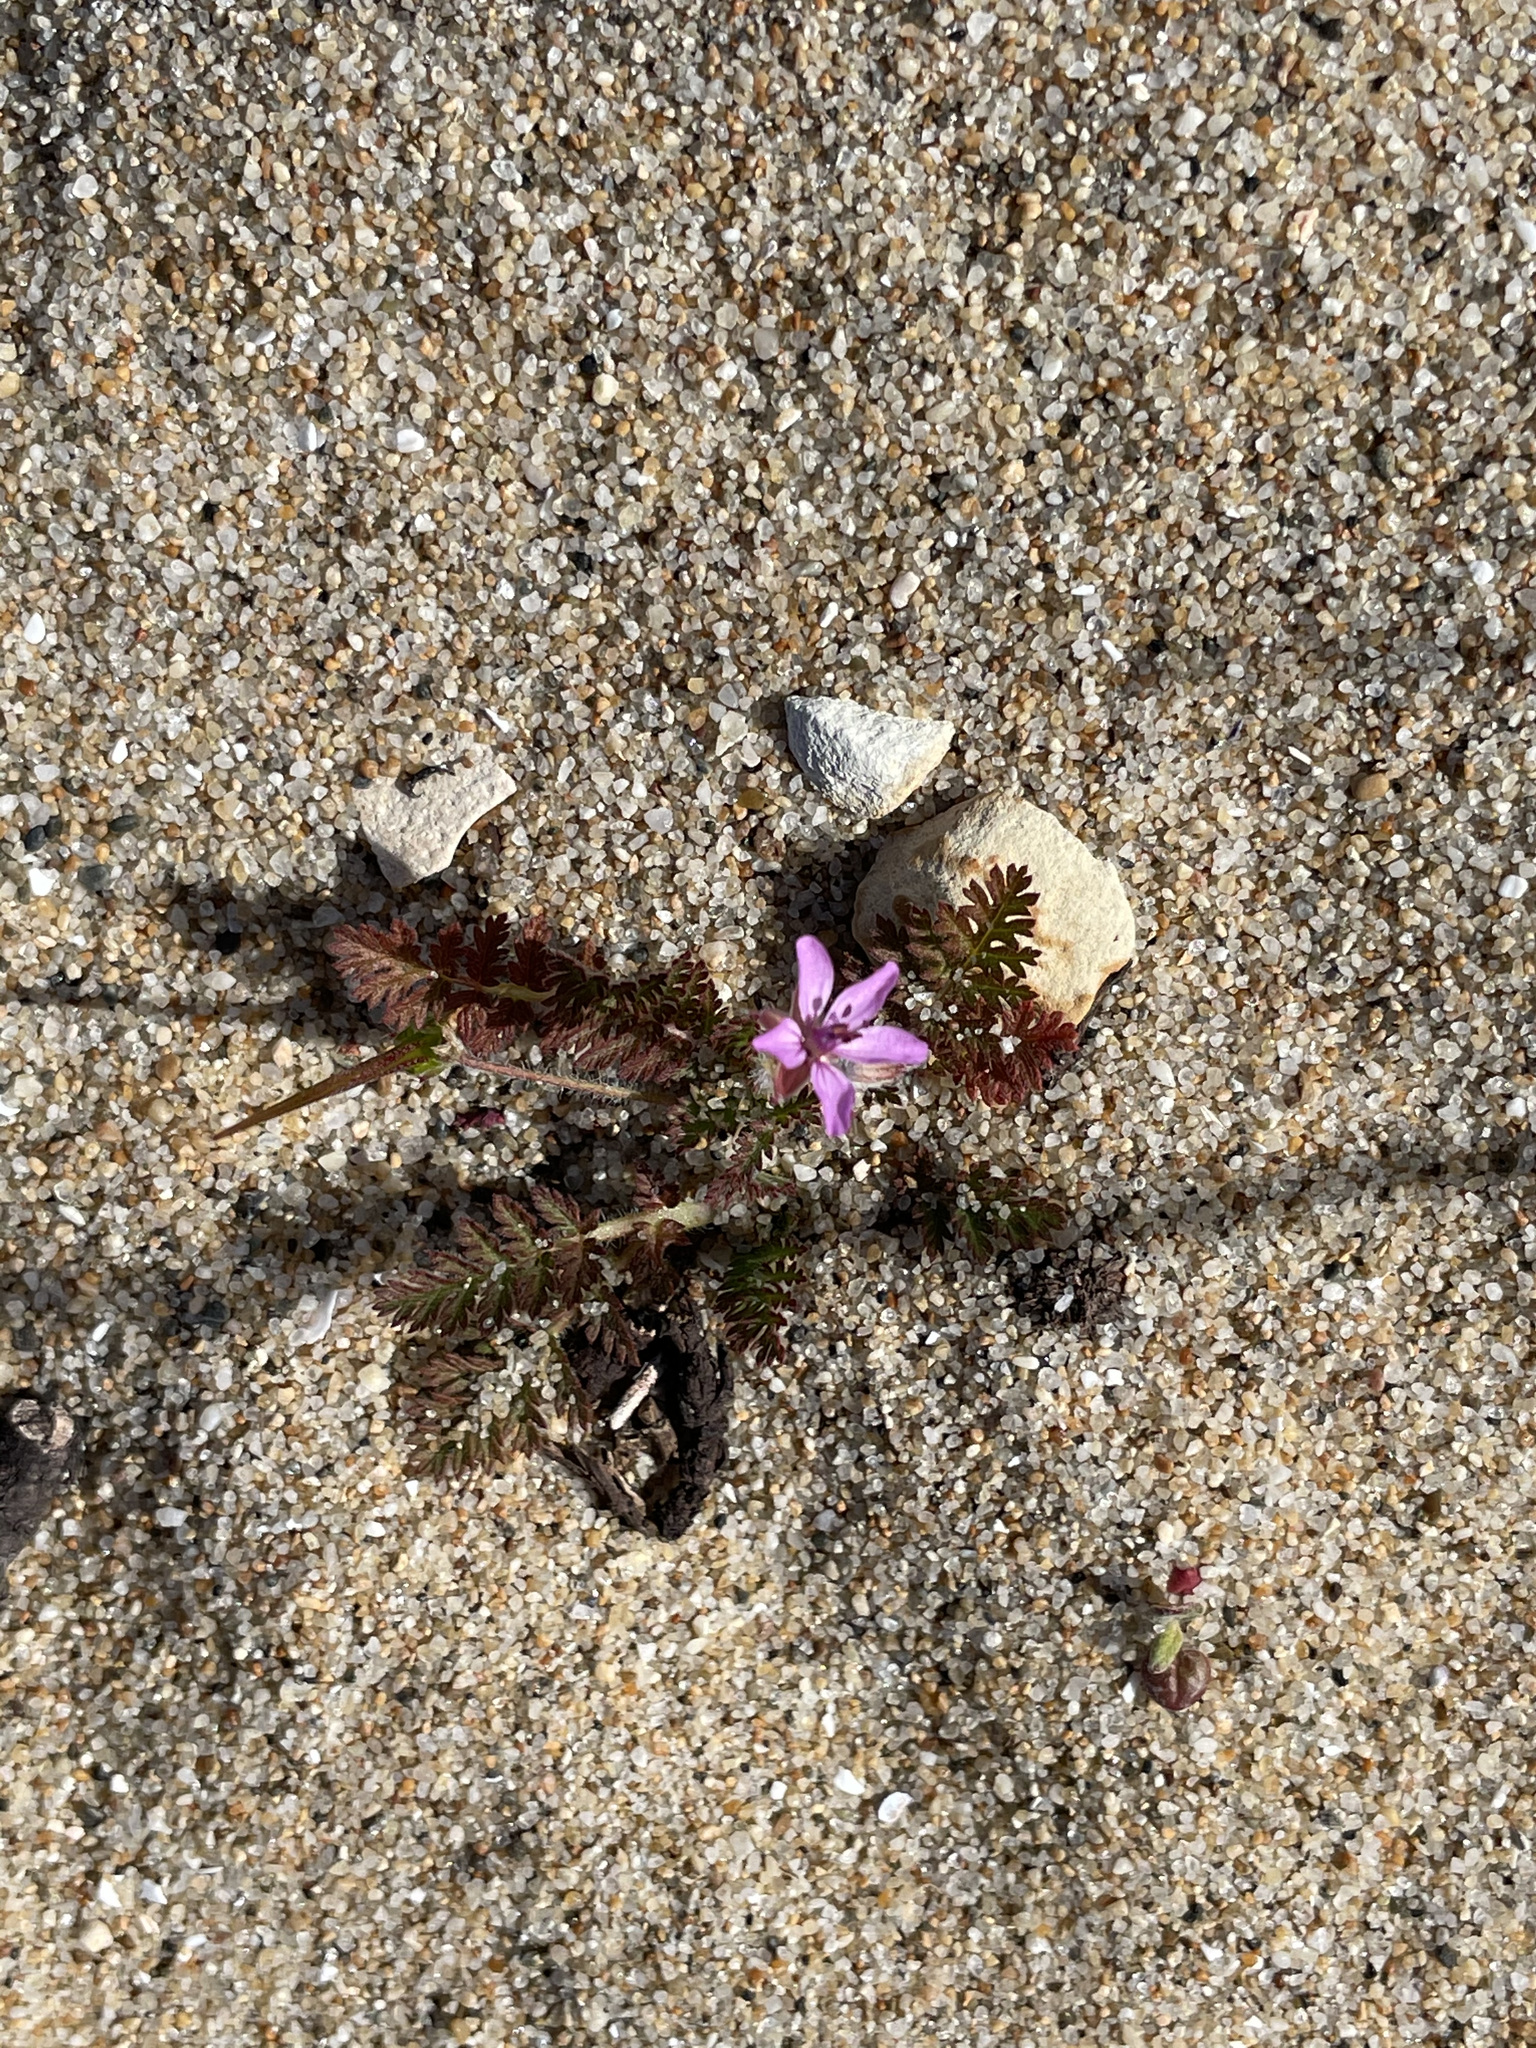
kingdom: Plantae
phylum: Tracheophyta
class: Magnoliopsida
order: Geraniales
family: Geraniaceae
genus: Erodium
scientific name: Erodium cicutarium
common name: Common stork's-bill
